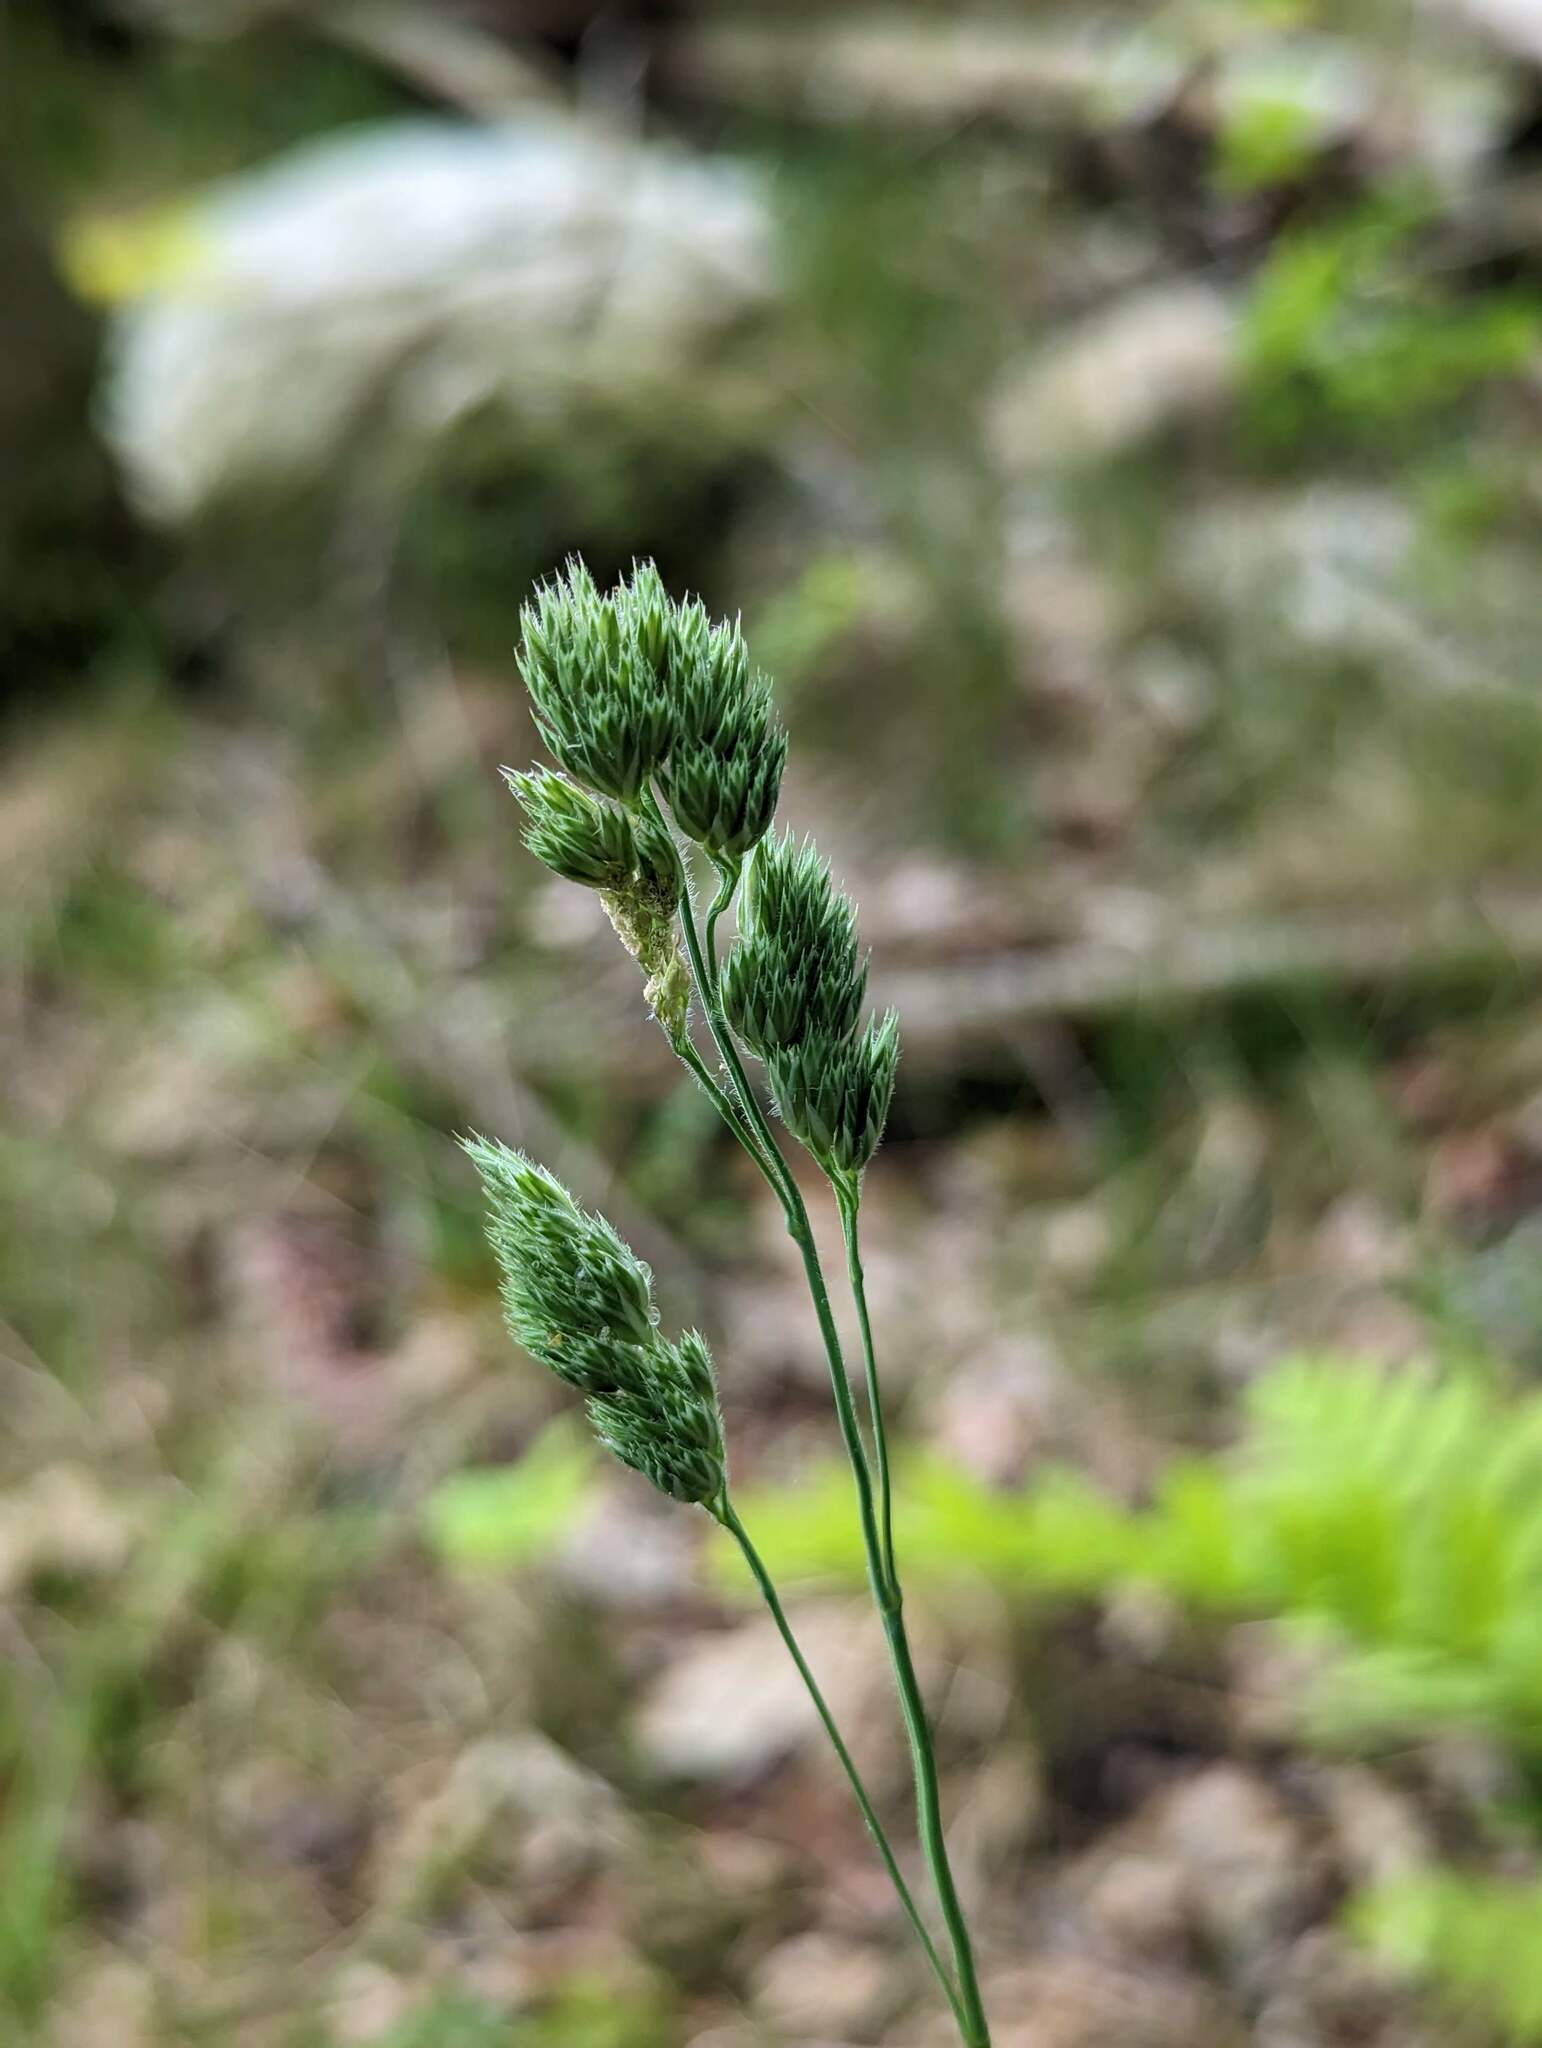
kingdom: Plantae
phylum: Tracheophyta
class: Liliopsida
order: Poales
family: Poaceae
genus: Dactylis
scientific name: Dactylis glomerata
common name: Orchardgrass
